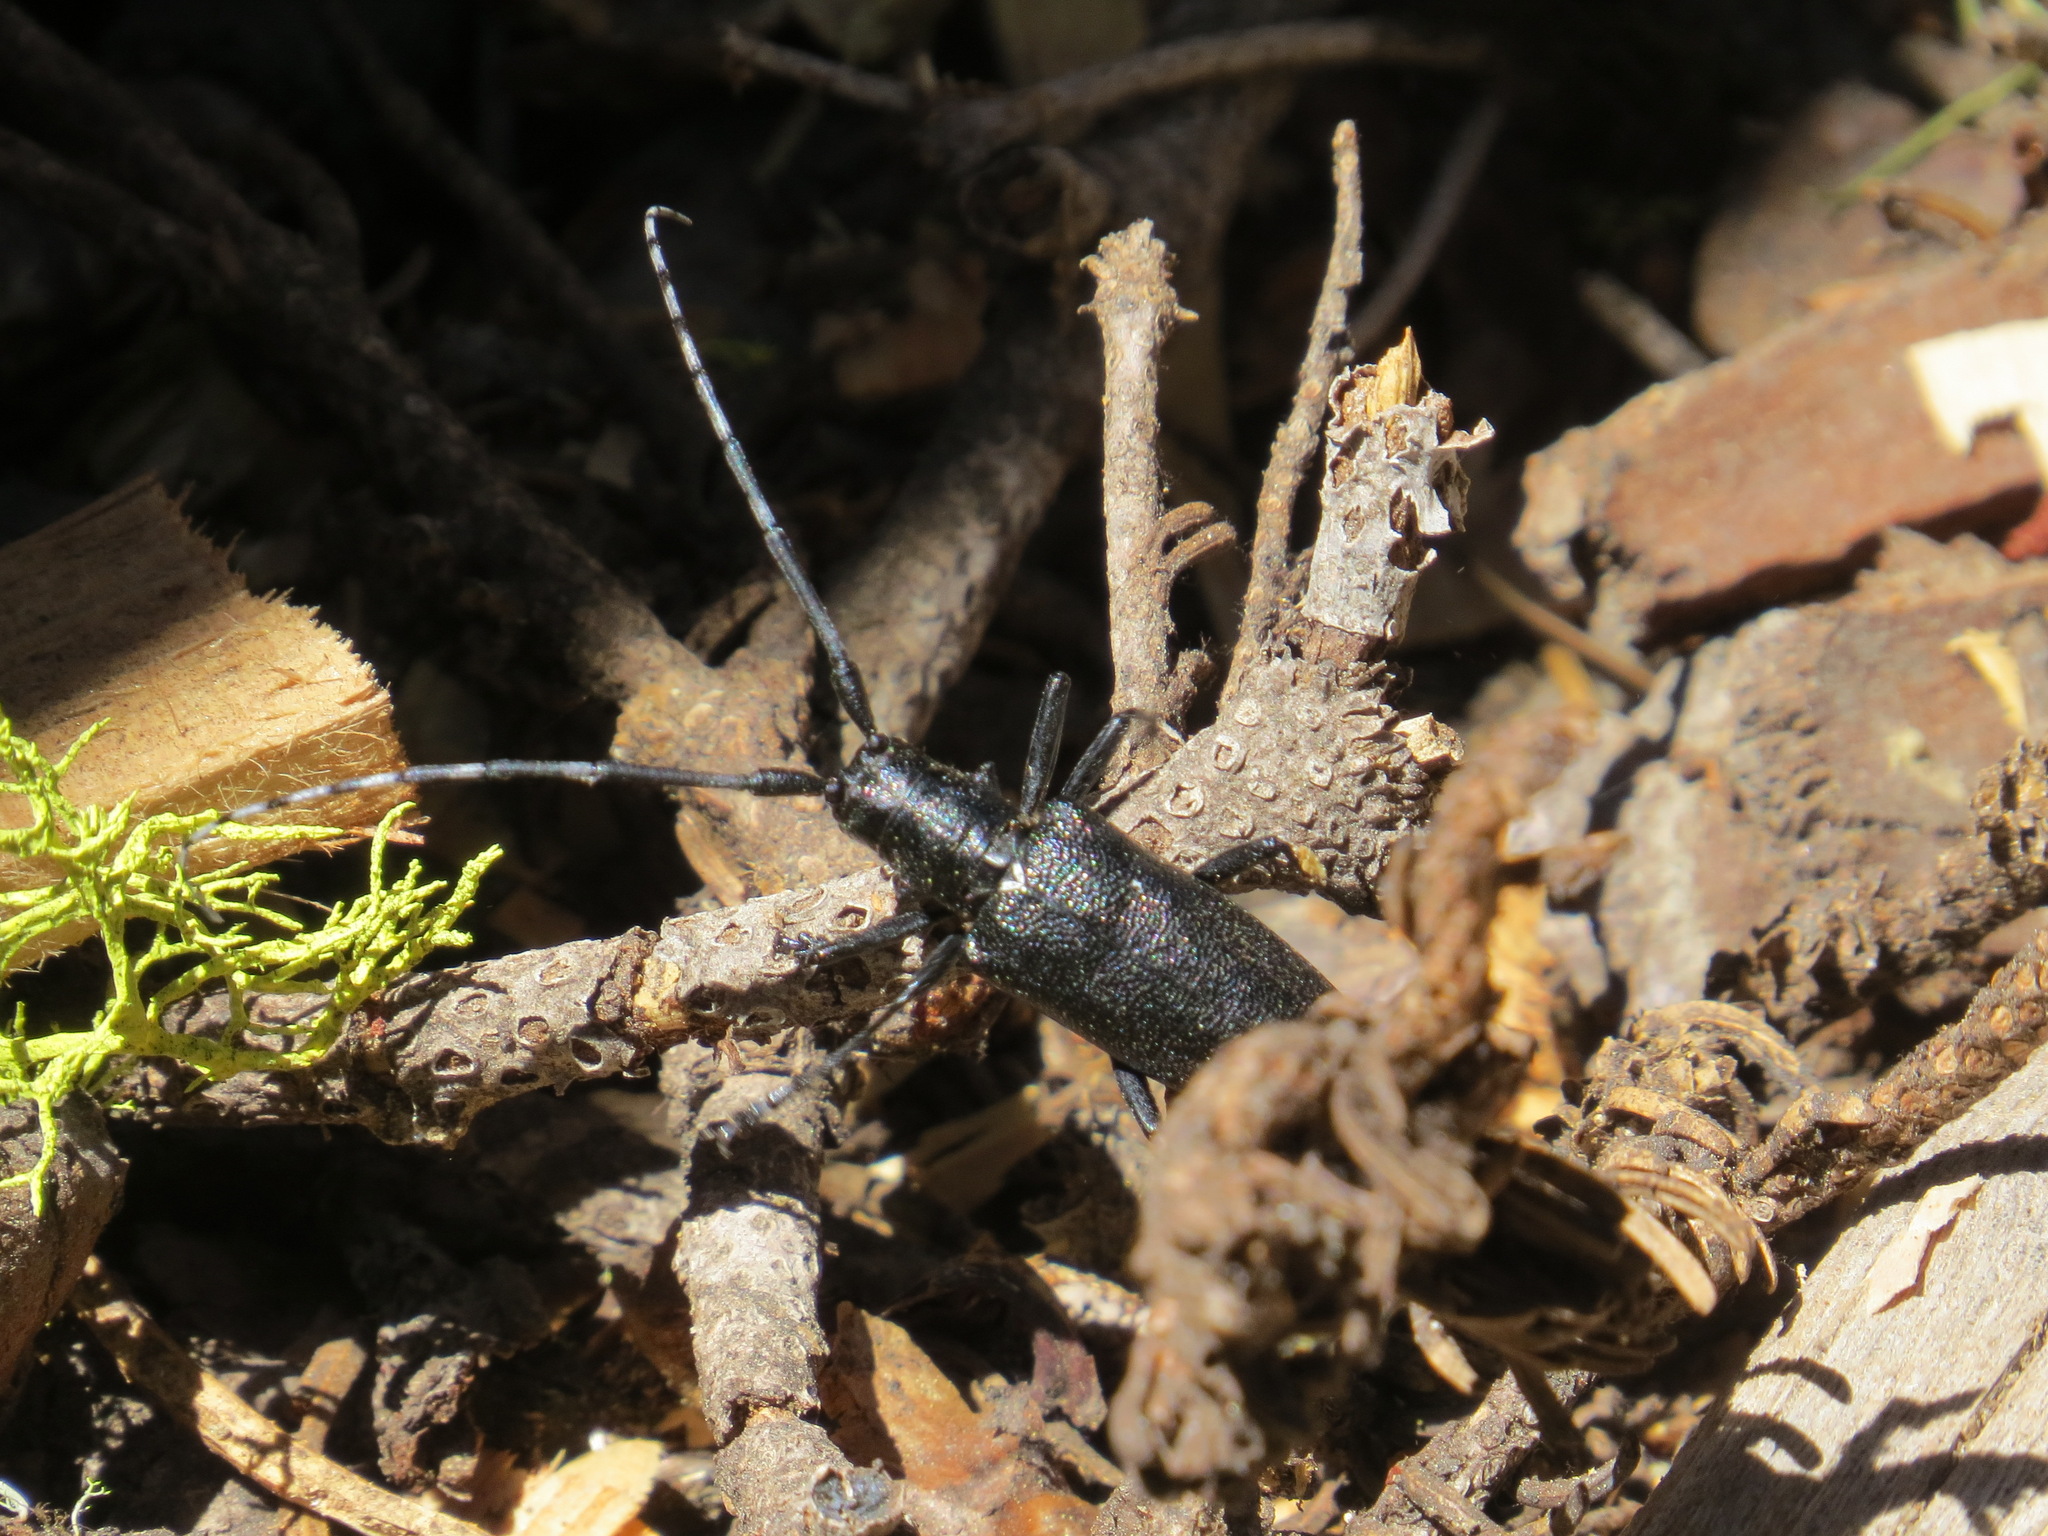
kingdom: Animalia
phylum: Arthropoda
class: Insecta
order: Coleoptera
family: Cerambycidae
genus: Monochamus
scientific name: Monochamus scutellatus
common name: White-spotted sawyer beetle
